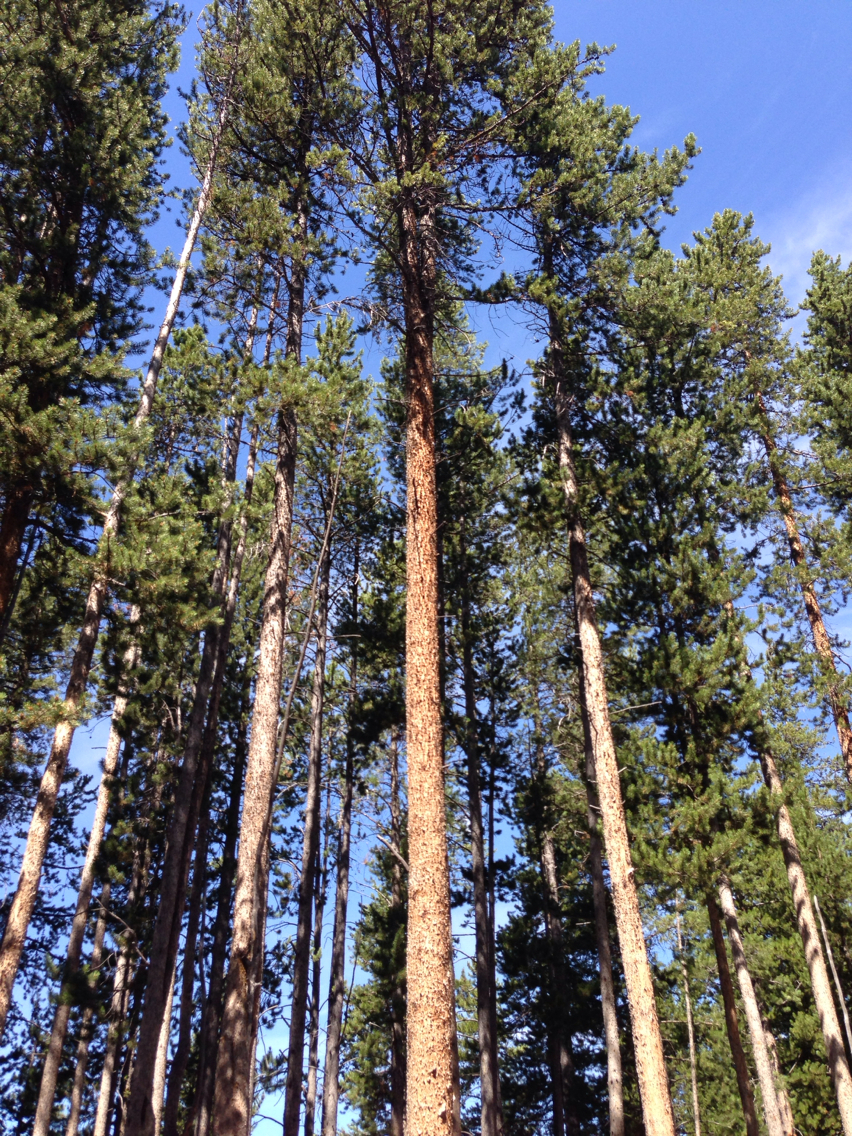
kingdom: Plantae
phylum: Tracheophyta
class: Pinopsida
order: Pinales
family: Pinaceae
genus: Pinus
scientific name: Pinus contorta
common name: Lodgepole pine
